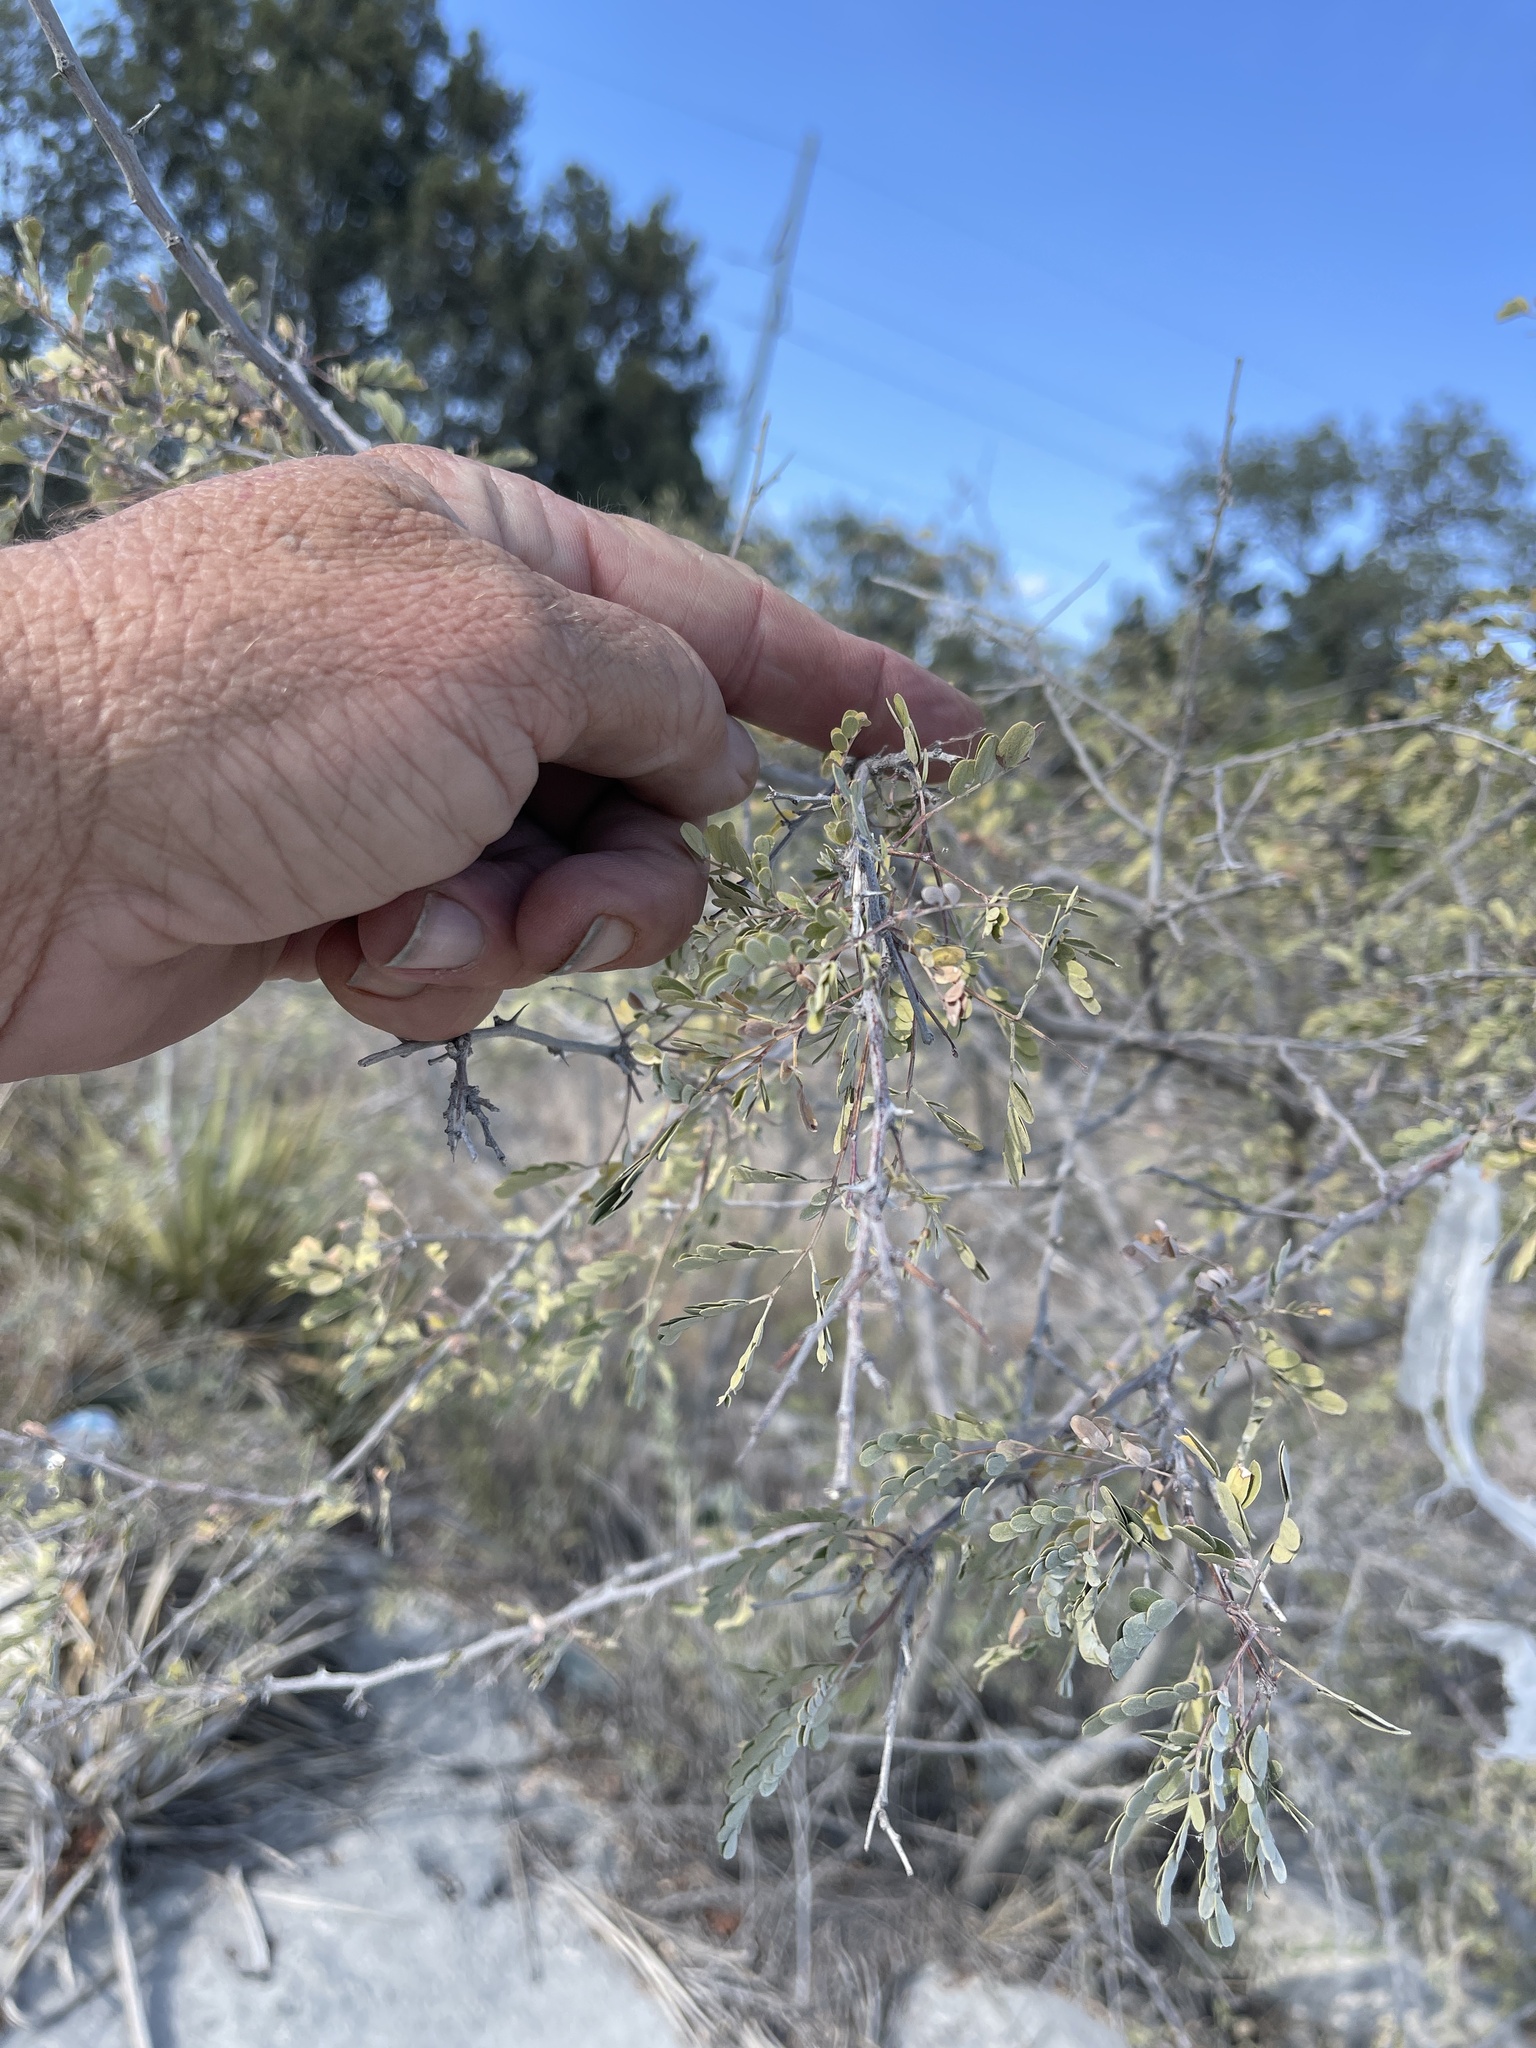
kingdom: Plantae
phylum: Tracheophyta
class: Magnoliopsida
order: Fabales
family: Fabaceae
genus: Senegalia
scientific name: Senegalia roemeriana
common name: Roemer's acacia
